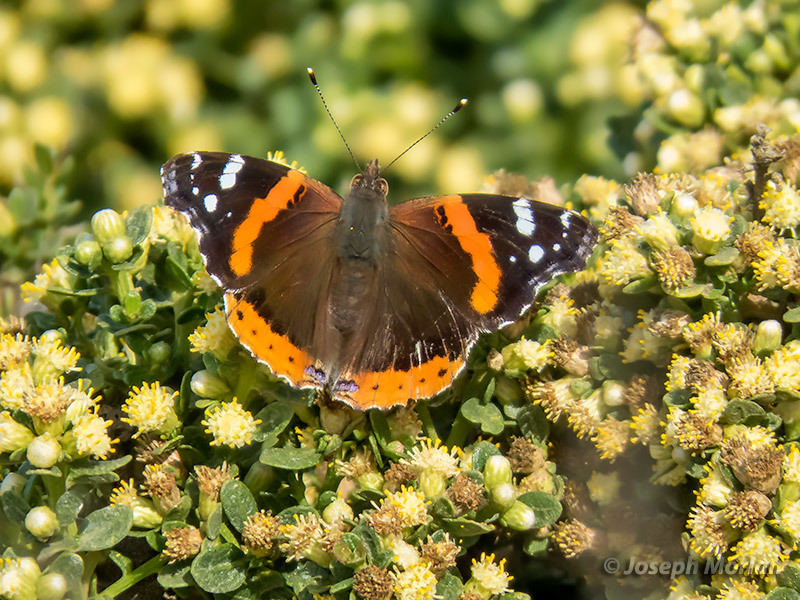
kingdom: Animalia
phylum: Arthropoda
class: Insecta
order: Lepidoptera
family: Nymphalidae
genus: Vanessa
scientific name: Vanessa atalanta
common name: Red admiral
